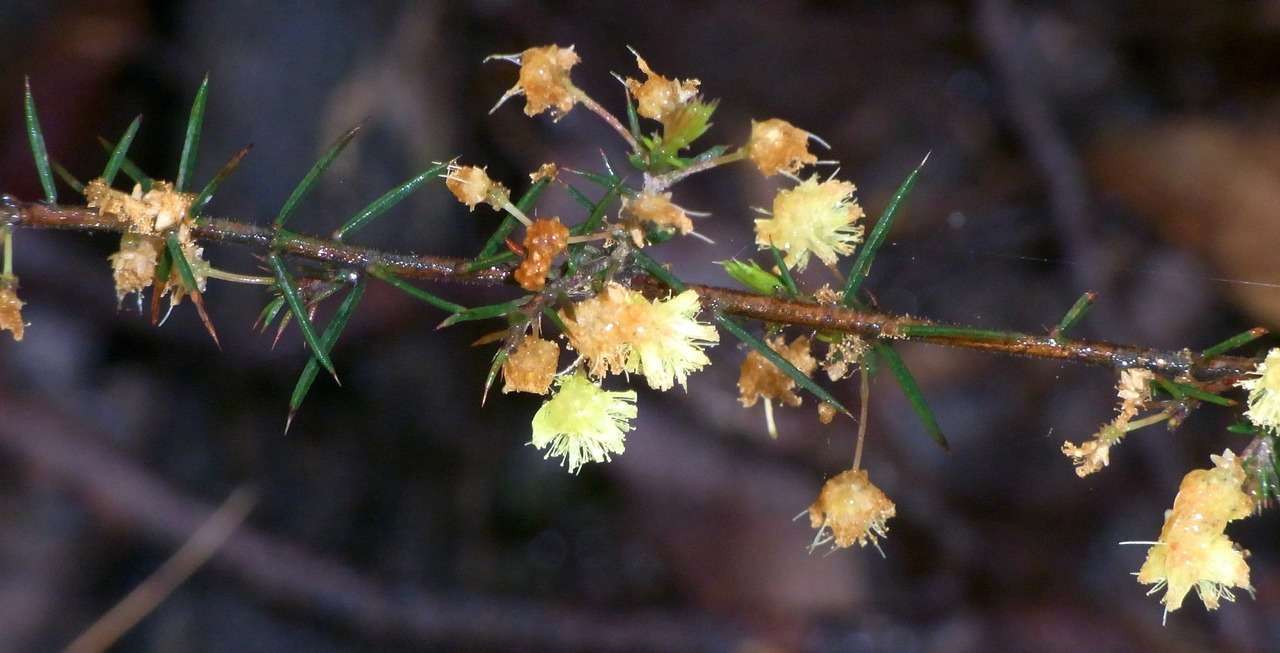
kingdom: Plantae
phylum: Tracheophyta
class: Magnoliopsida
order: Fabales
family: Fabaceae
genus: Acacia
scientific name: Acacia aculeatissima
